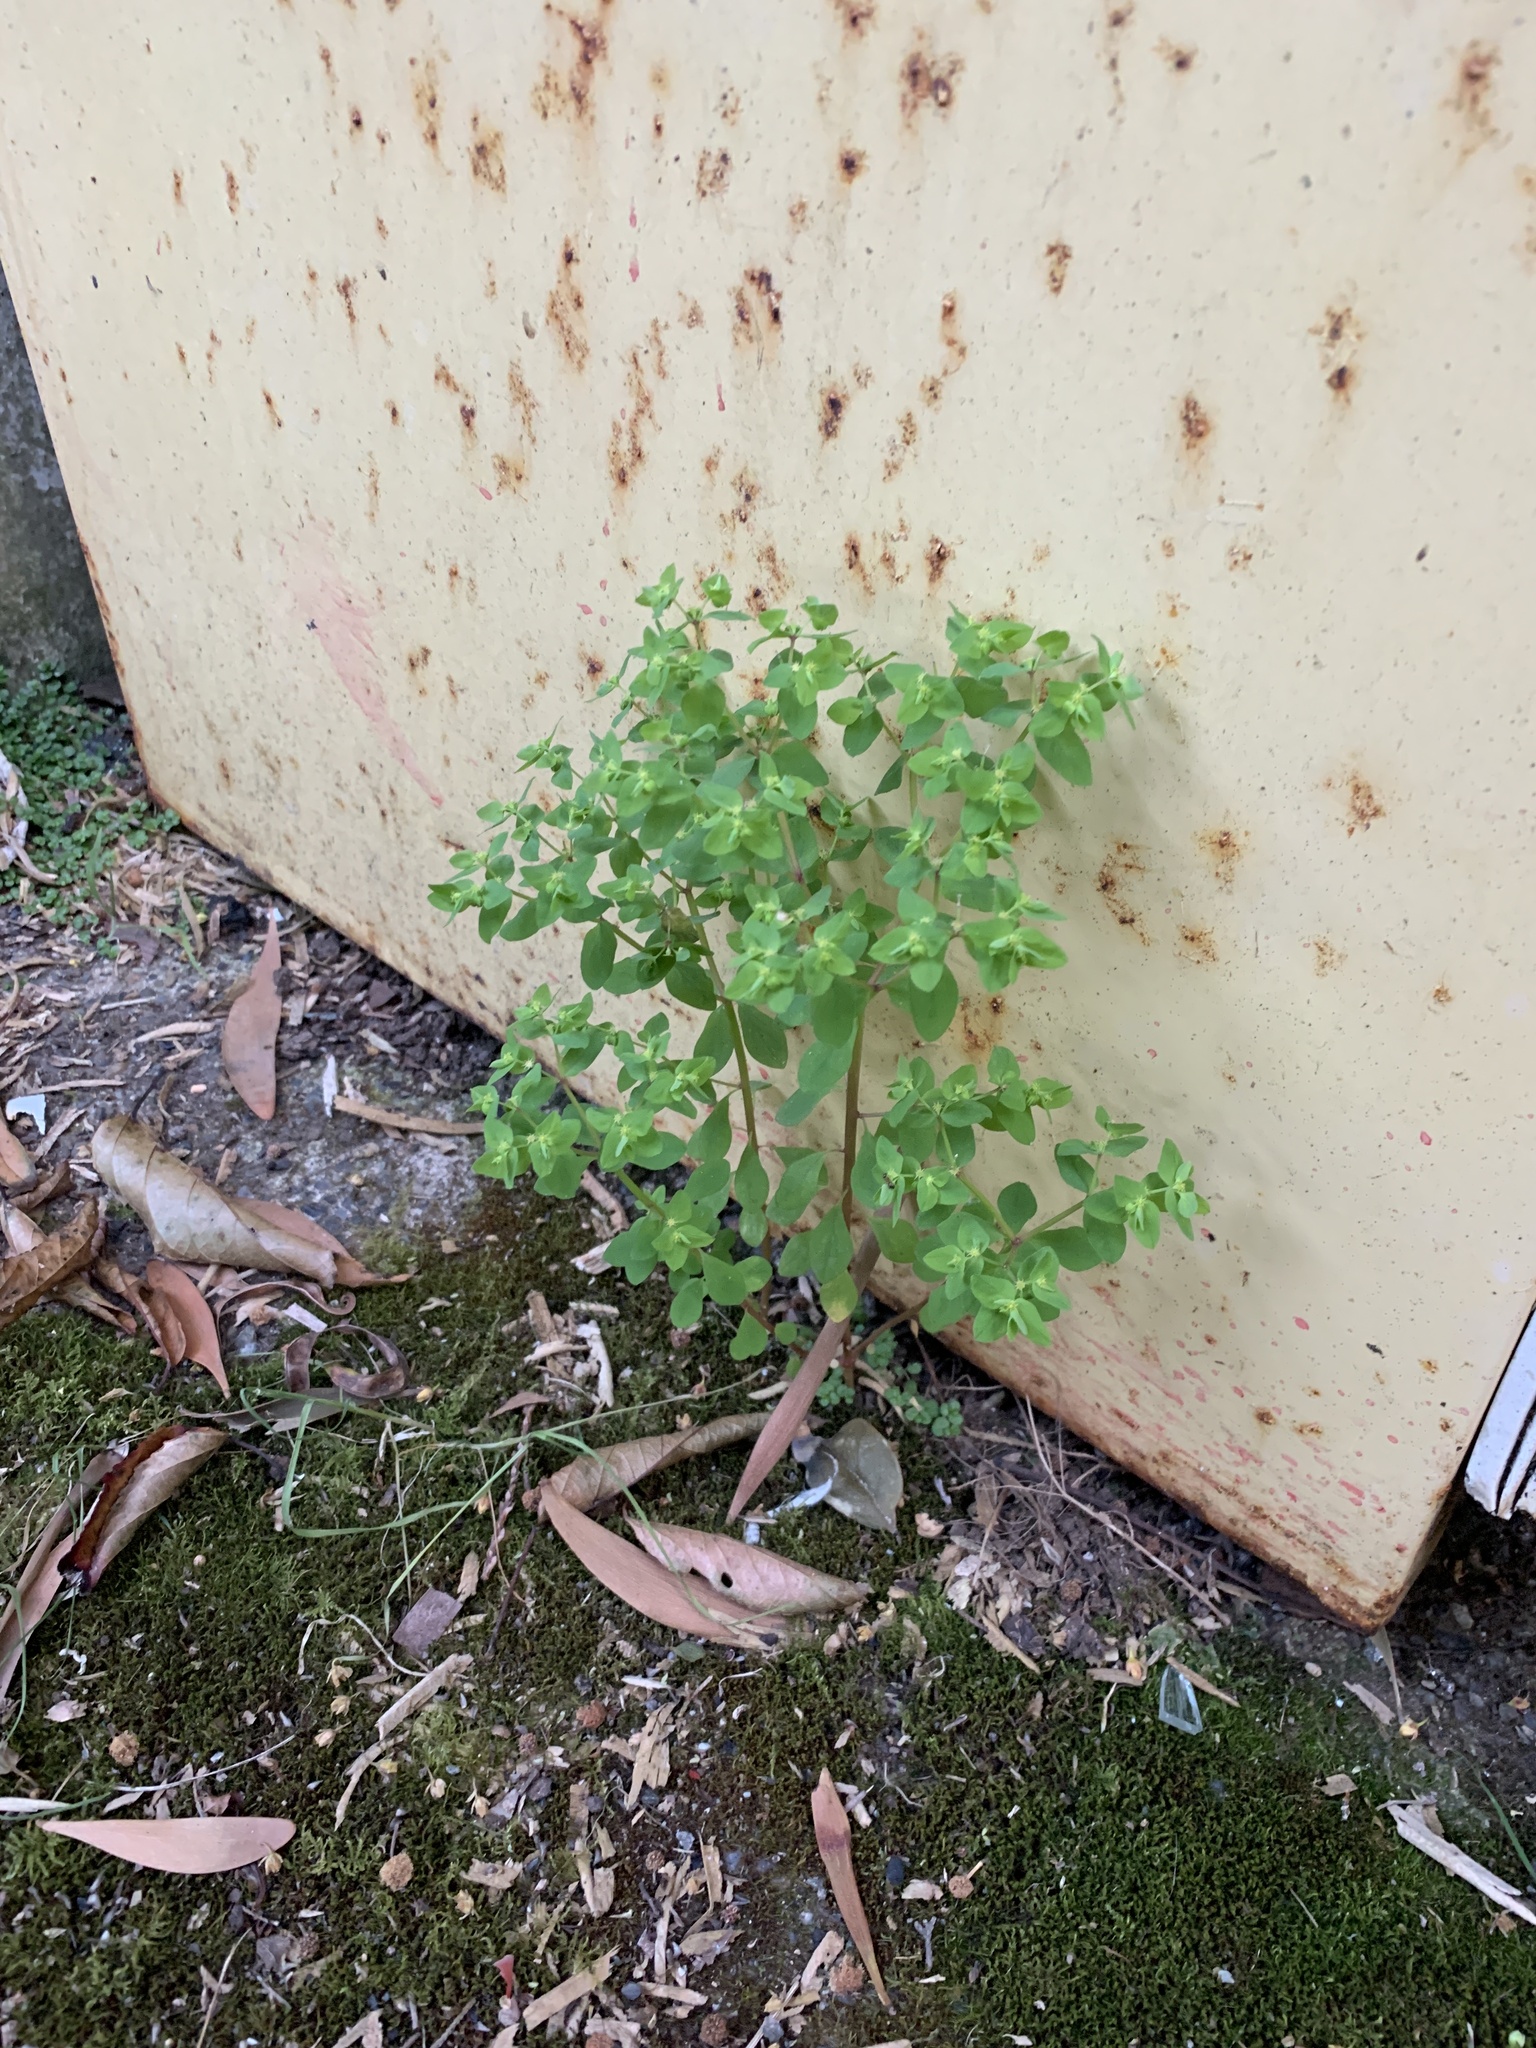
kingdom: Plantae
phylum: Tracheophyta
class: Magnoliopsida
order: Malpighiales
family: Euphorbiaceae
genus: Euphorbia
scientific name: Euphorbia peplus
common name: Petty spurge
